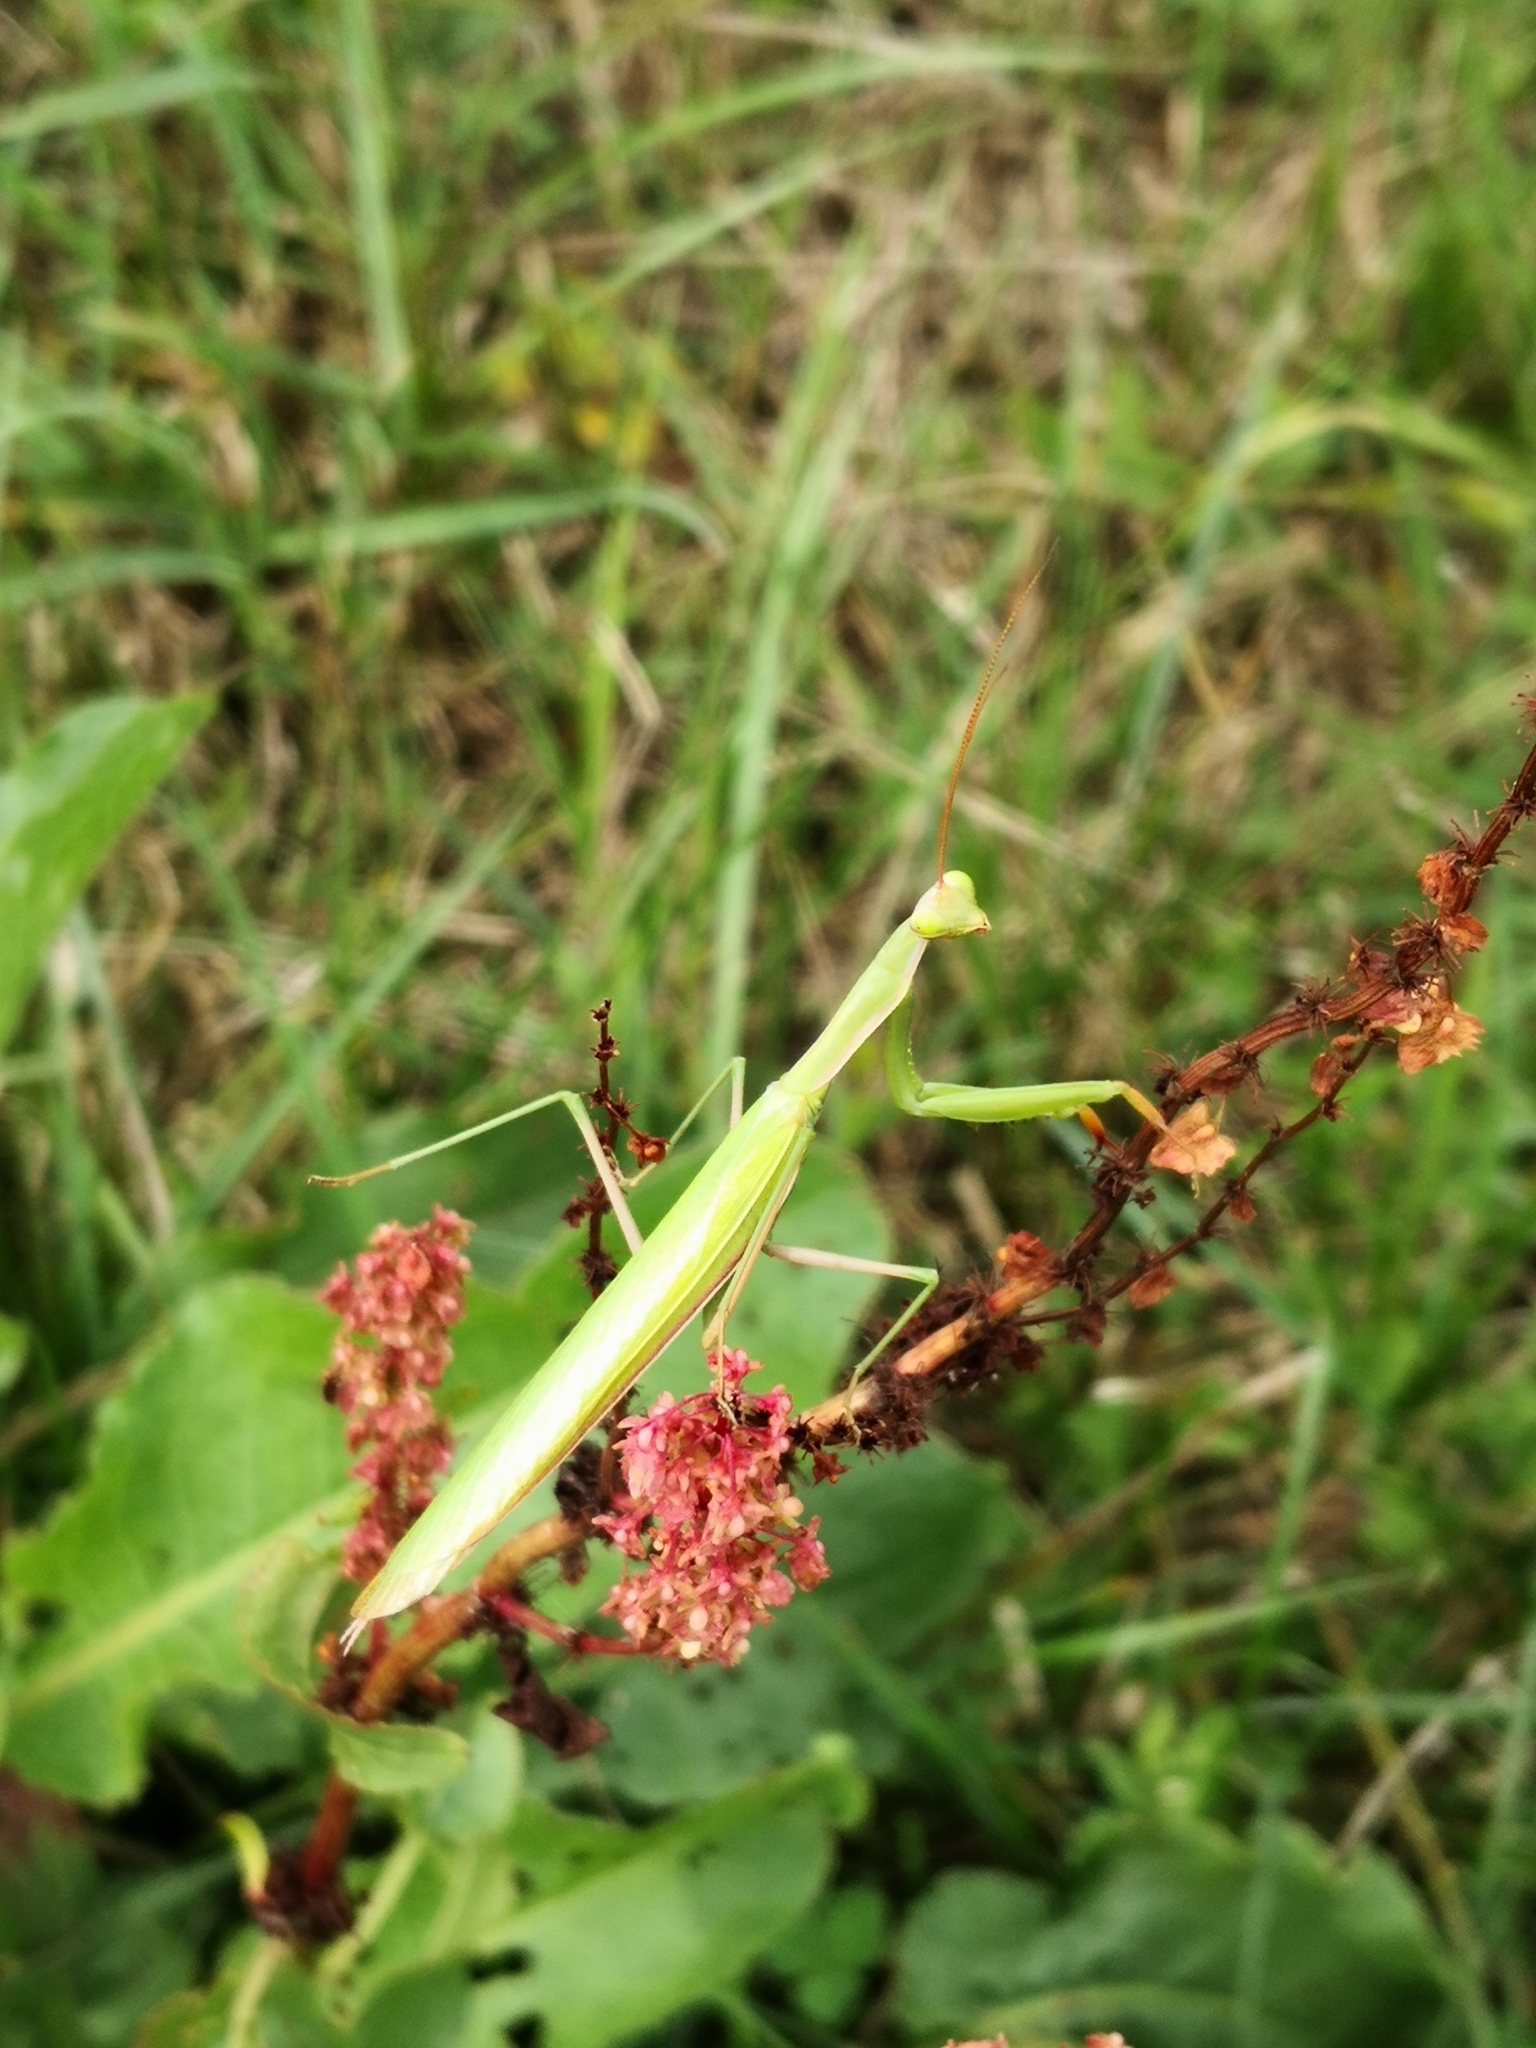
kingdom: Animalia
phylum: Arthropoda
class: Insecta
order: Mantodea
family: Mantidae
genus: Mantis
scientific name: Mantis religiosa
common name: Praying mantis
